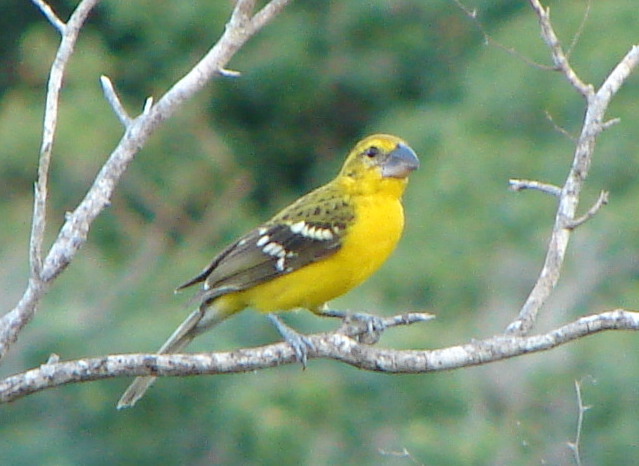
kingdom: Animalia
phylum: Chordata
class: Aves
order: Passeriformes
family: Cardinalidae
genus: Pheucticus
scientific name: Pheucticus chrysopeplus
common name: Yellow grosbeak
